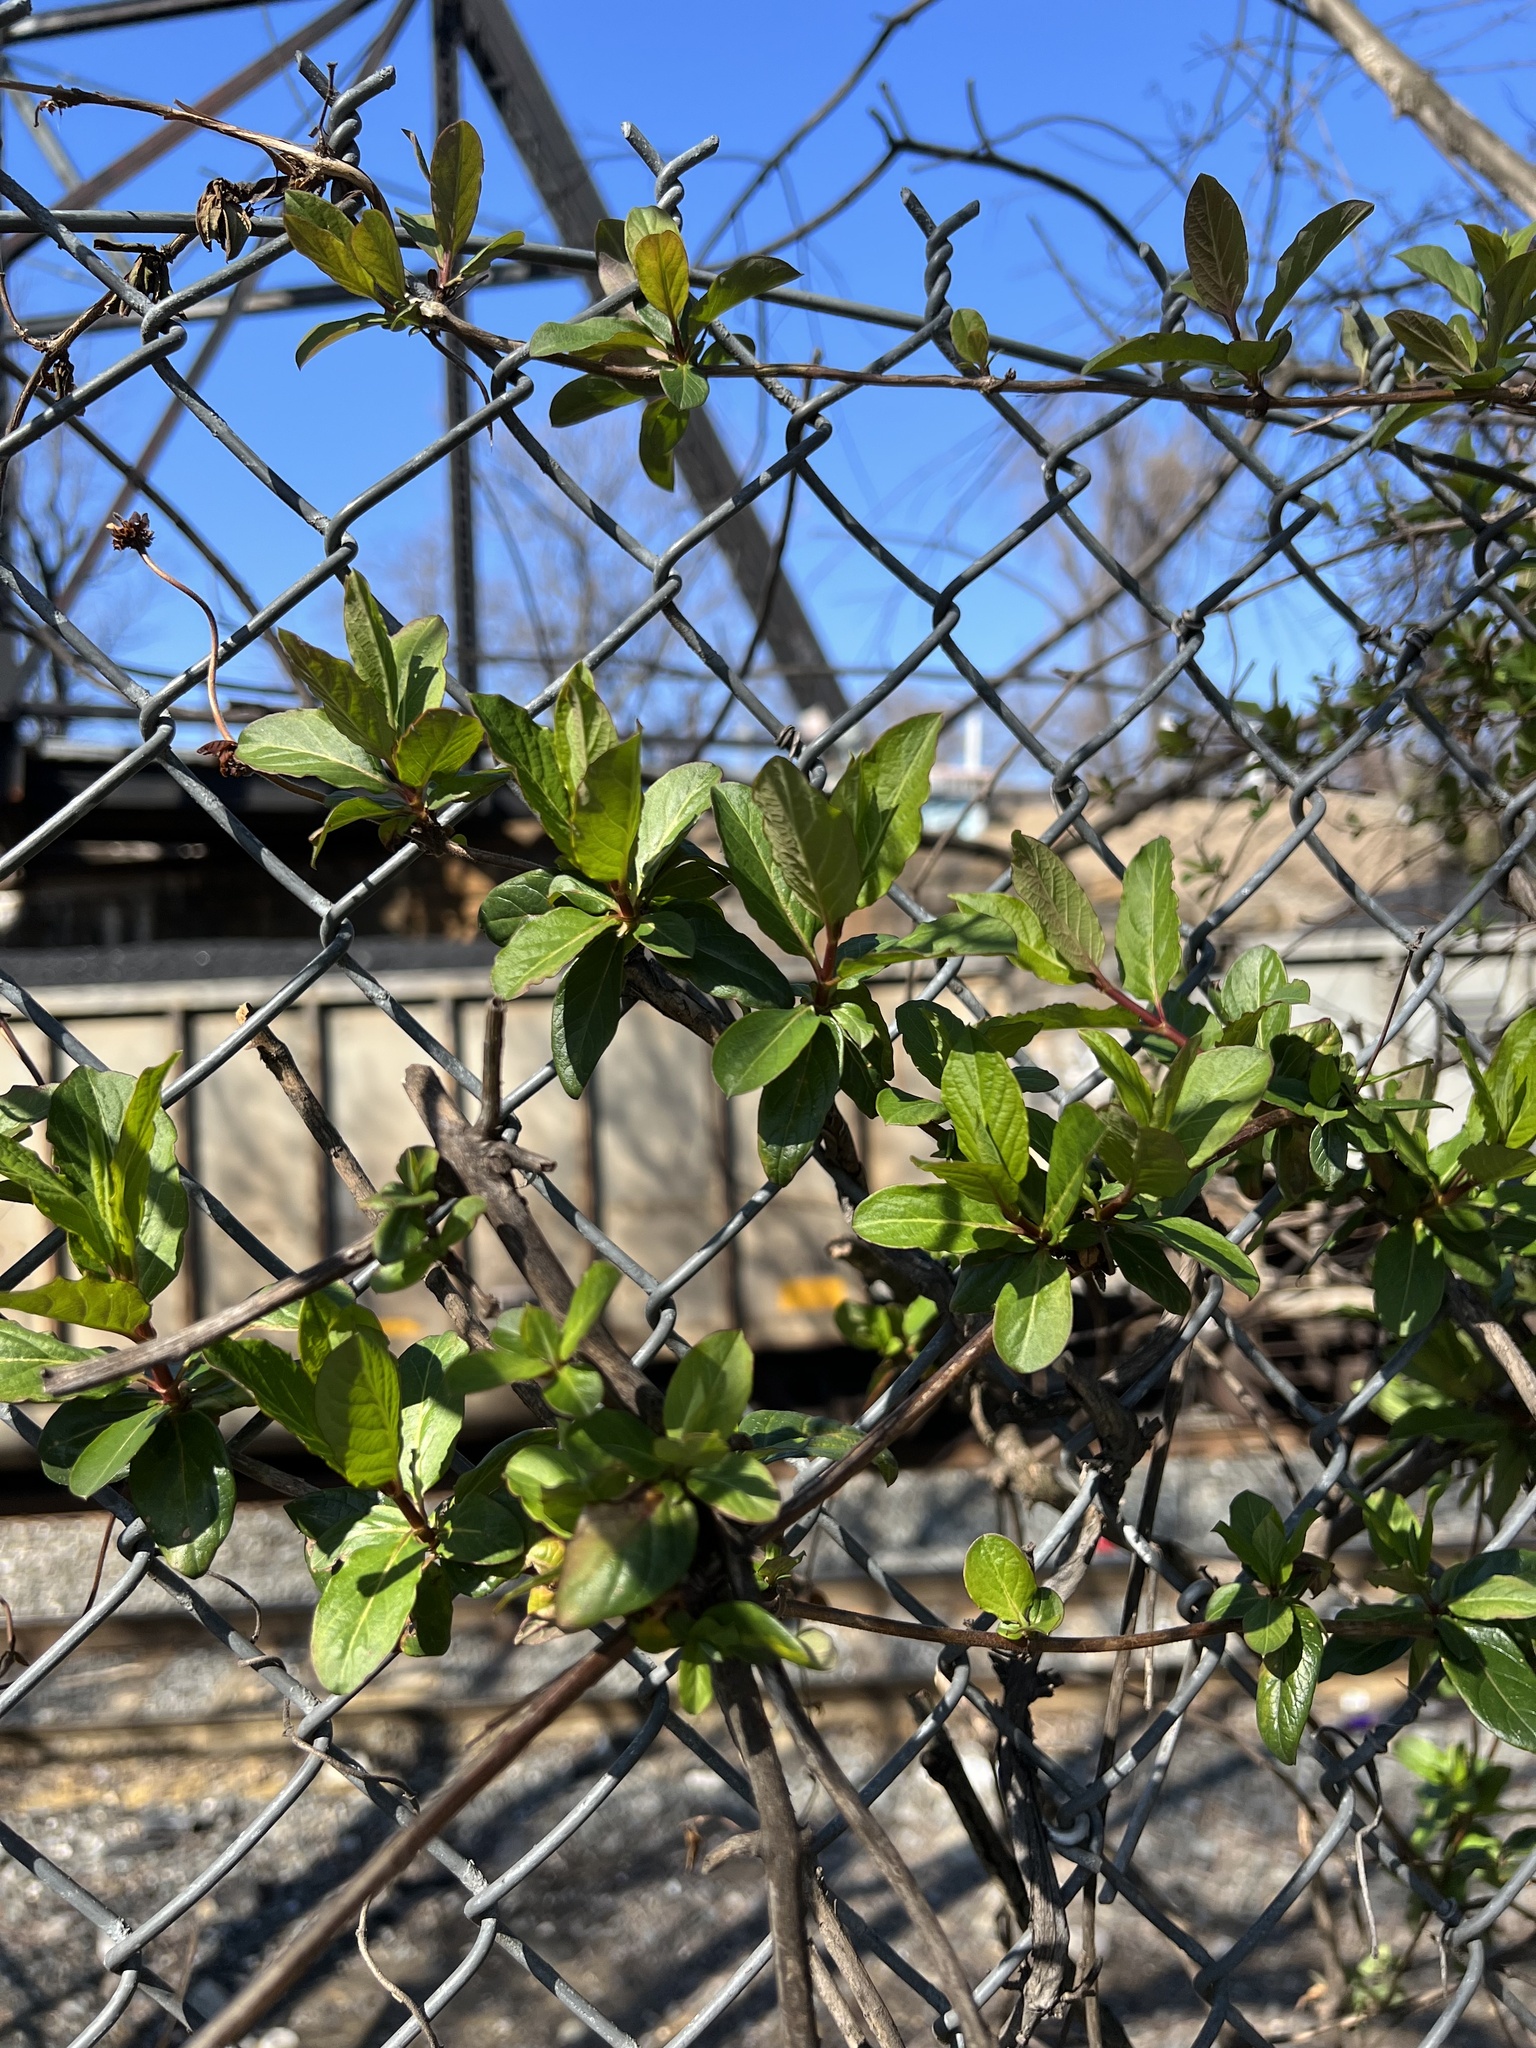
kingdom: Plantae
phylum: Tracheophyta
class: Magnoliopsida
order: Dipsacales
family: Caprifoliaceae
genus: Lonicera
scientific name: Lonicera japonica
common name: Japanese honeysuckle
